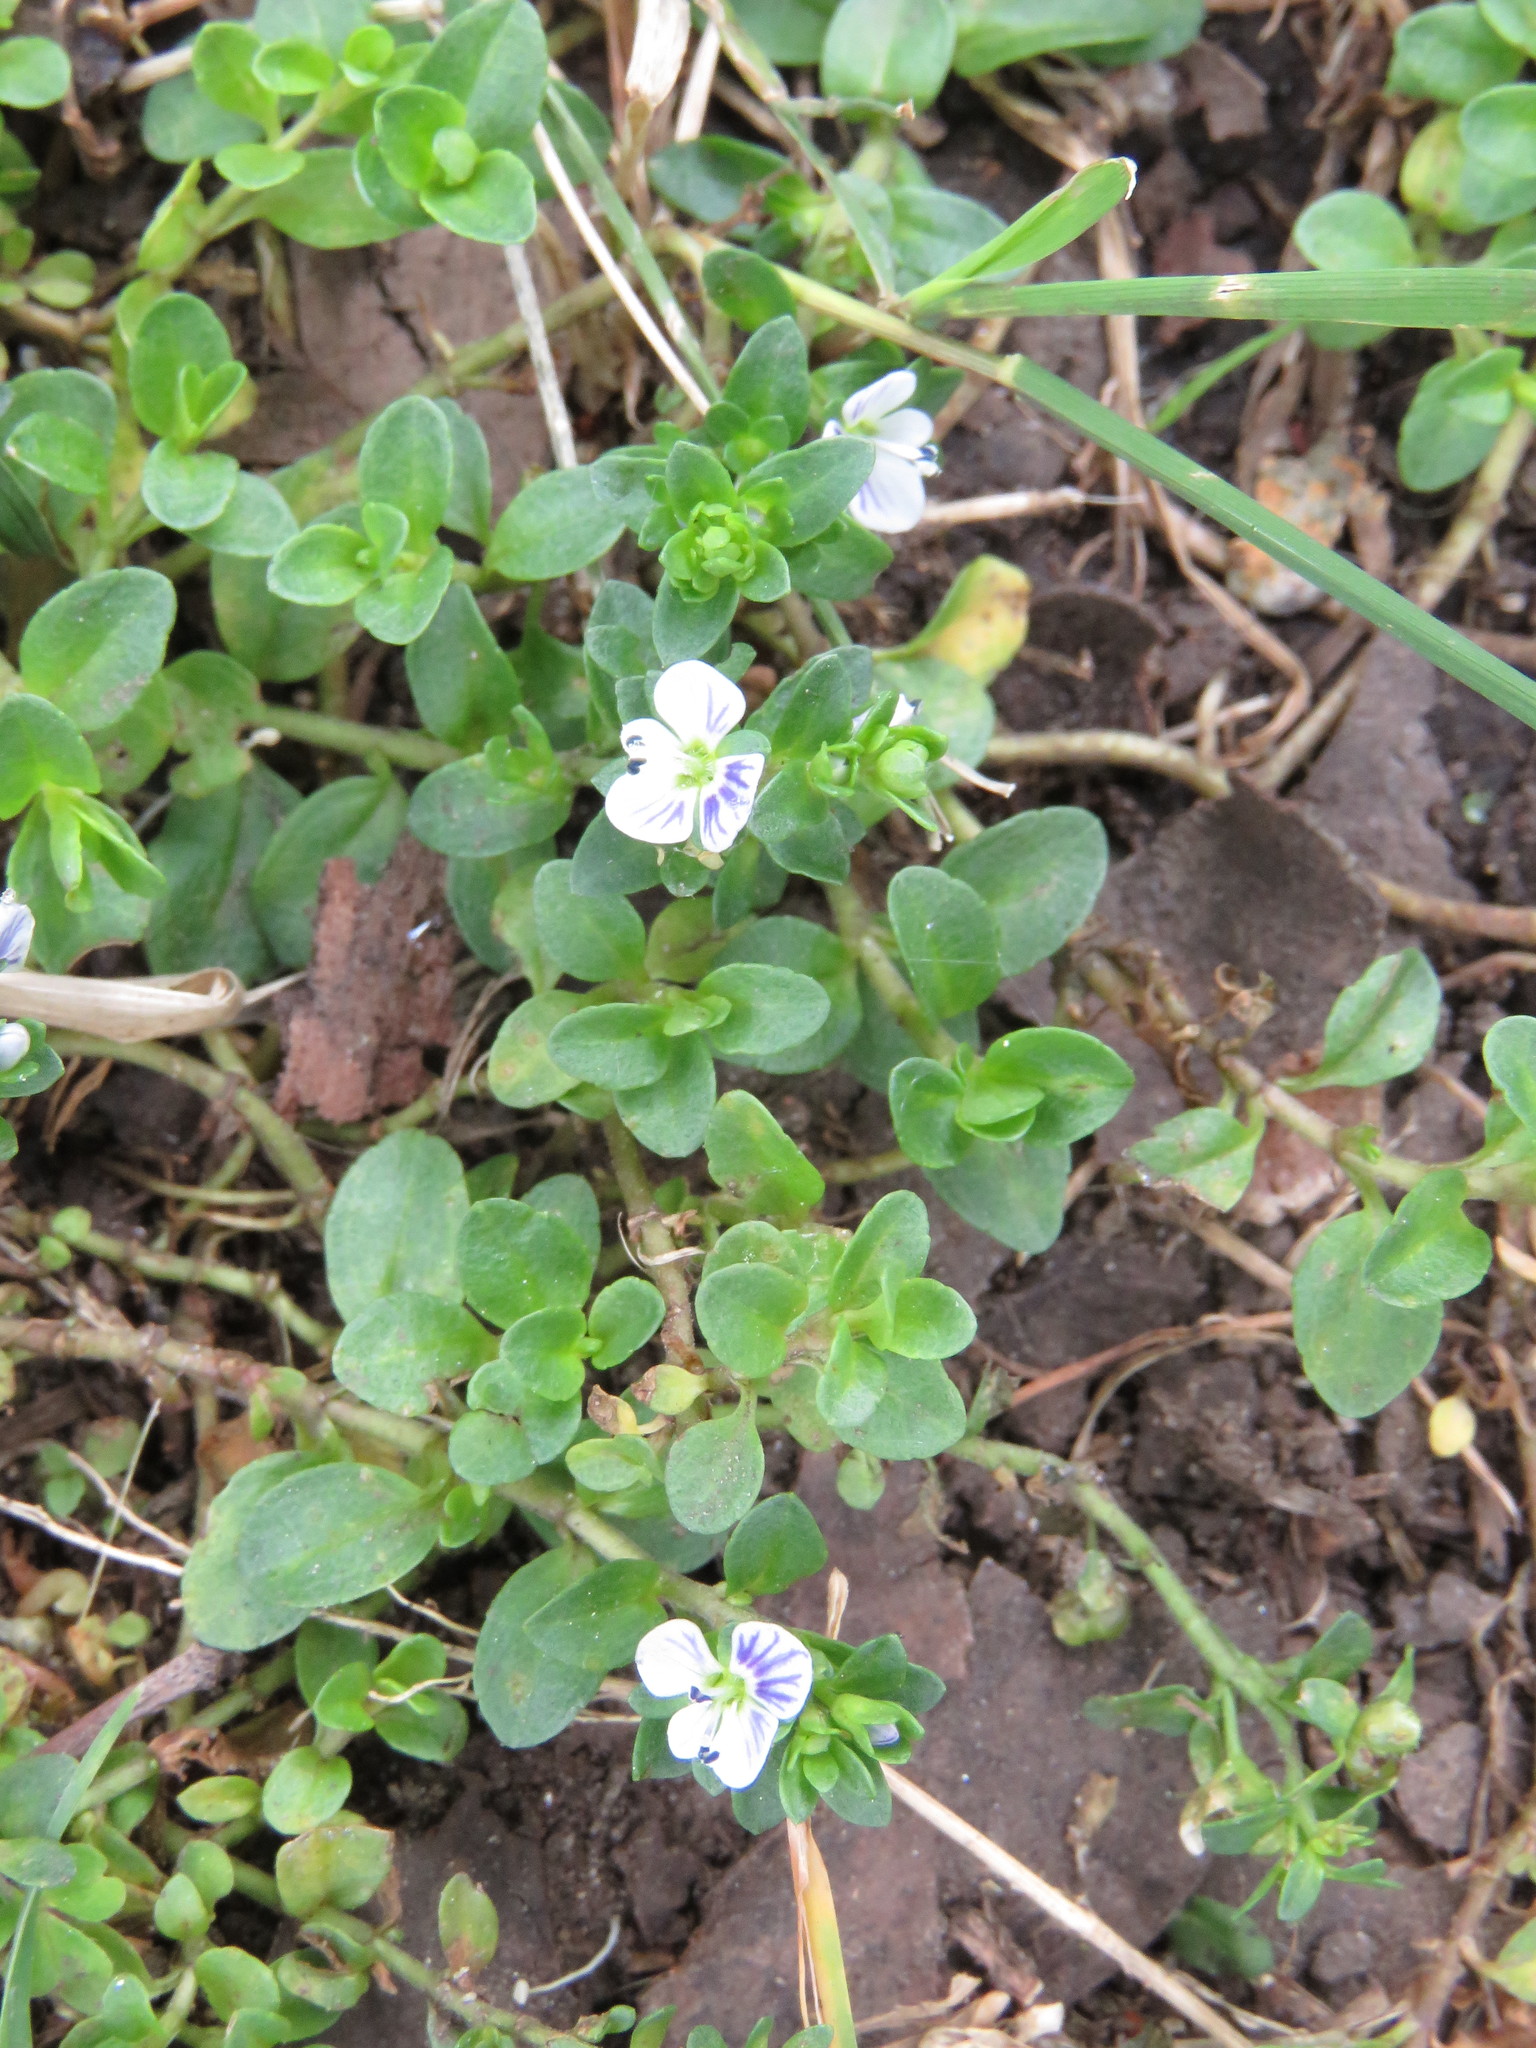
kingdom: Plantae
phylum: Tracheophyta
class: Magnoliopsida
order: Lamiales
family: Plantaginaceae
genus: Veronica
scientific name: Veronica serpyllifolia
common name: Thyme-leaved speedwell
